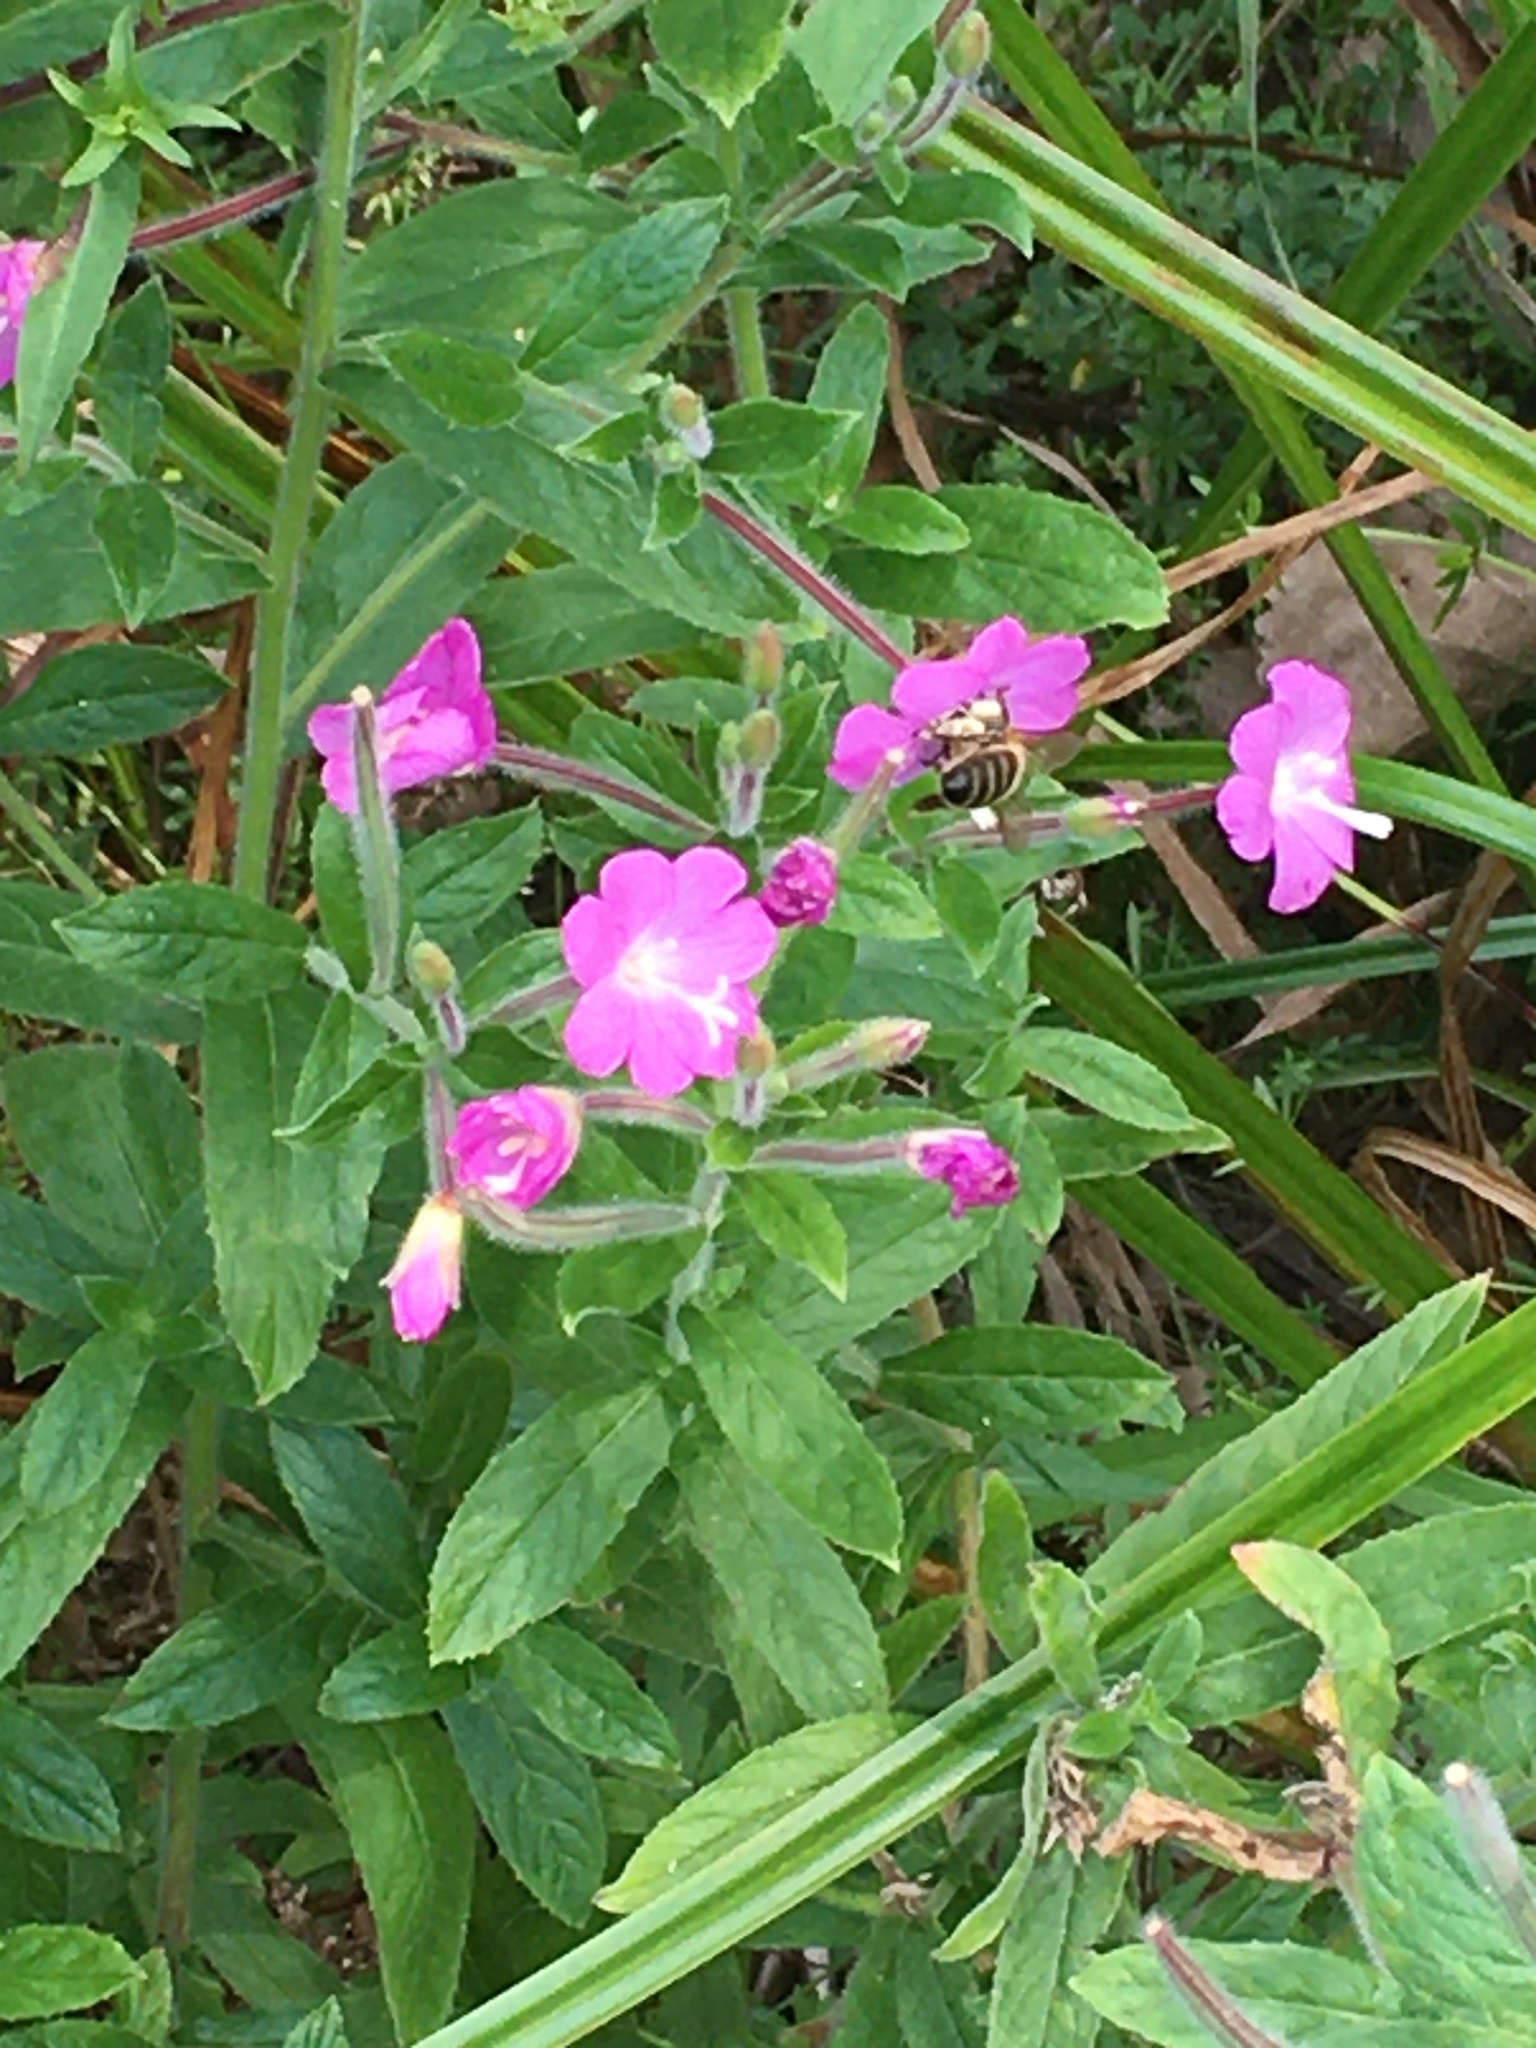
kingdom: Animalia
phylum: Arthropoda
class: Insecta
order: Hymenoptera
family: Apidae
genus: Apis
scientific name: Apis mellifera
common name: Honey bee
